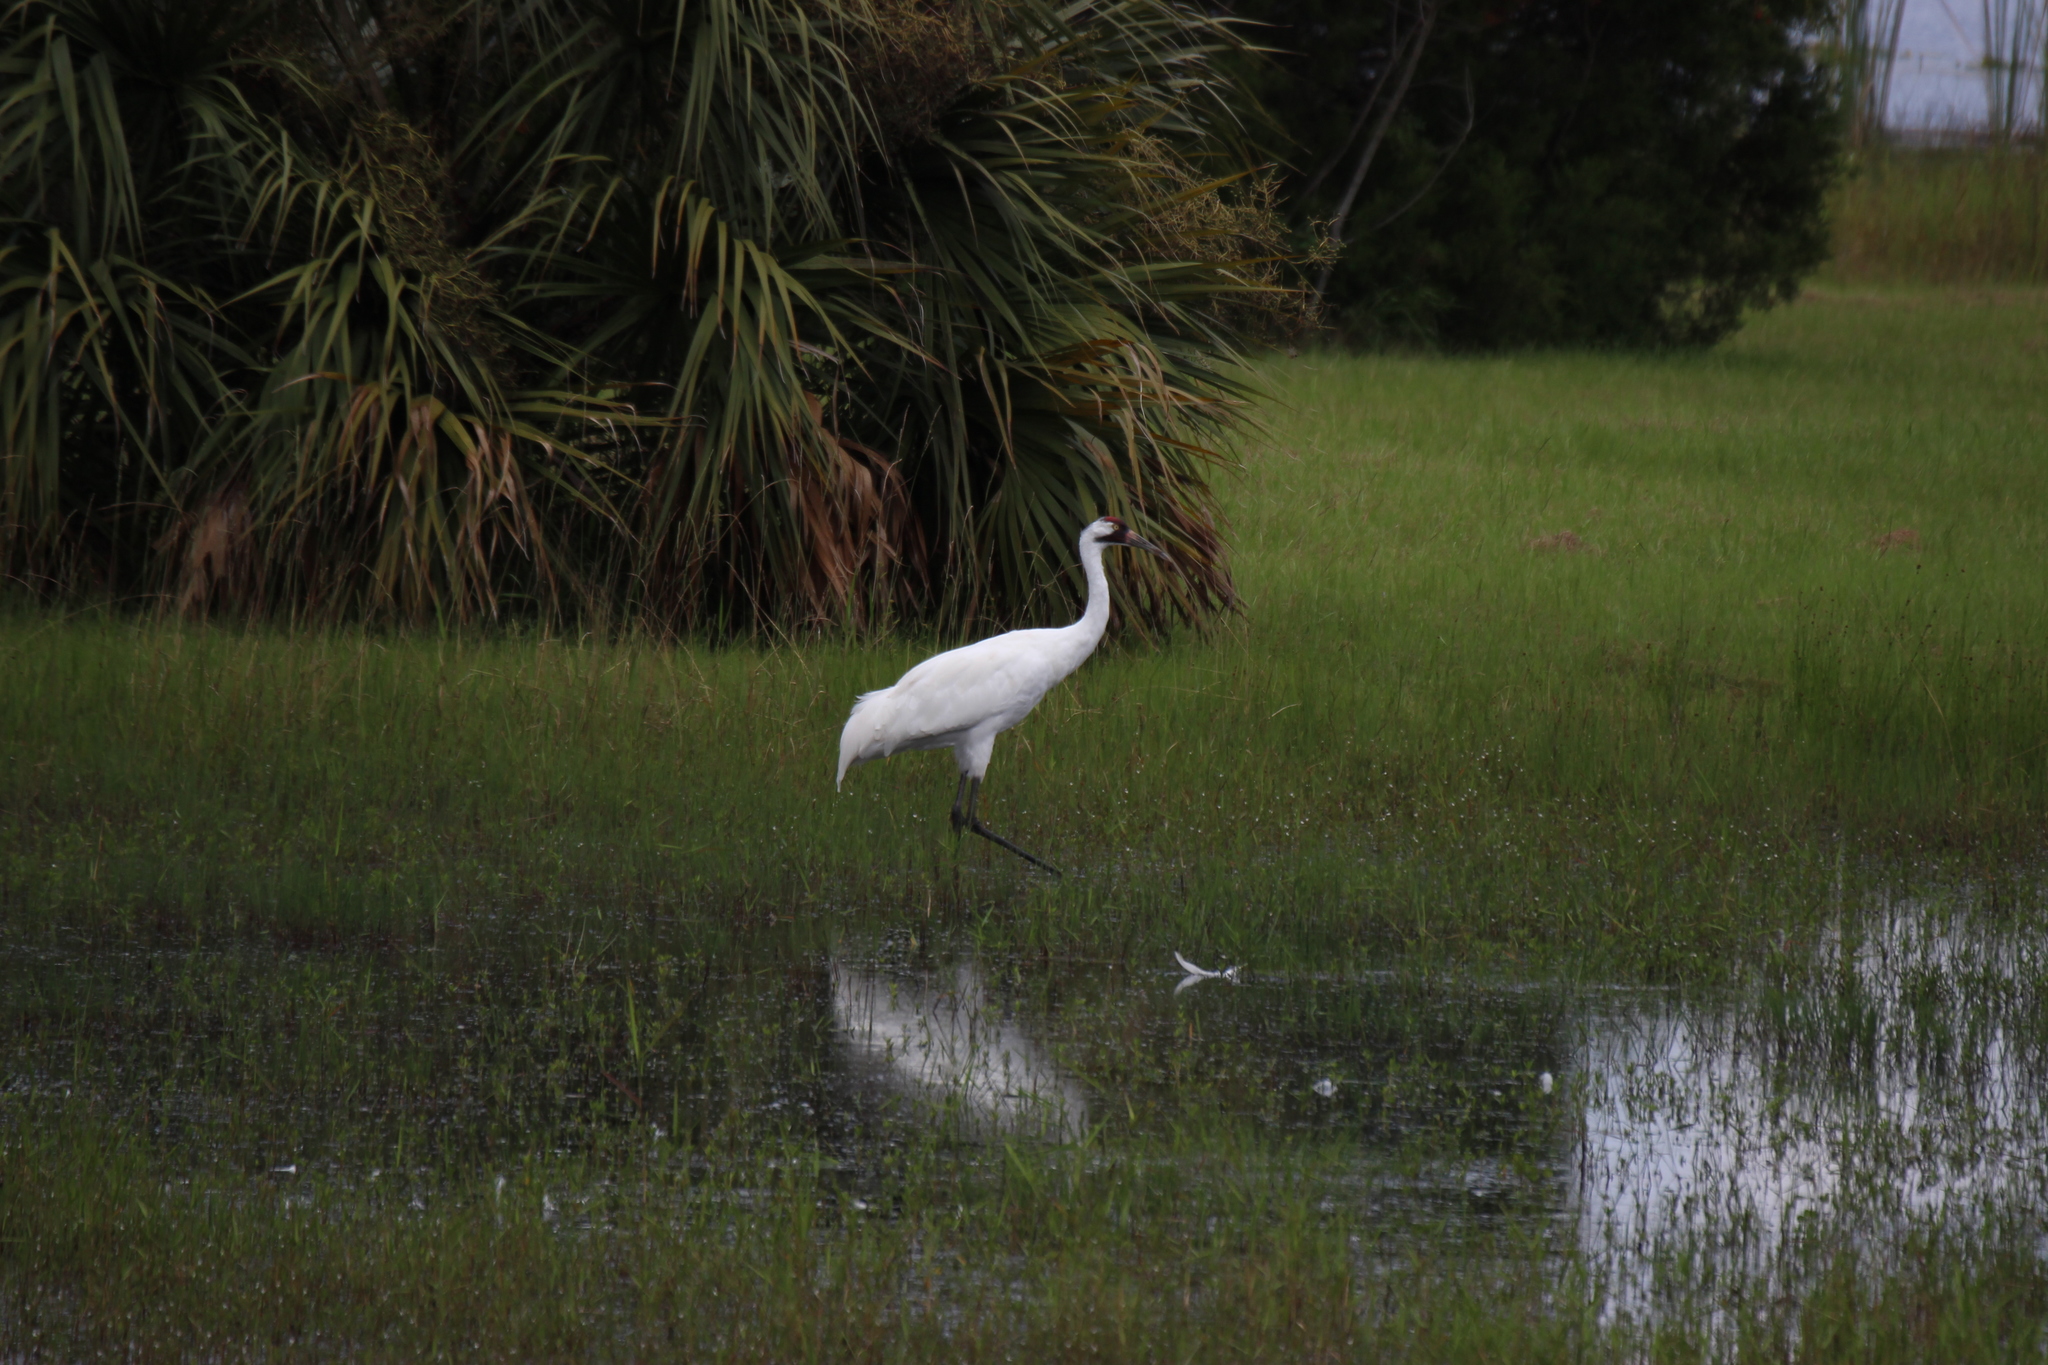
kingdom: Animalia
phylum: Chordata
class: Aves
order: Gruiformes
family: Gruidae
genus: Grus
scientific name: Grus americana
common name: Whooping crane
